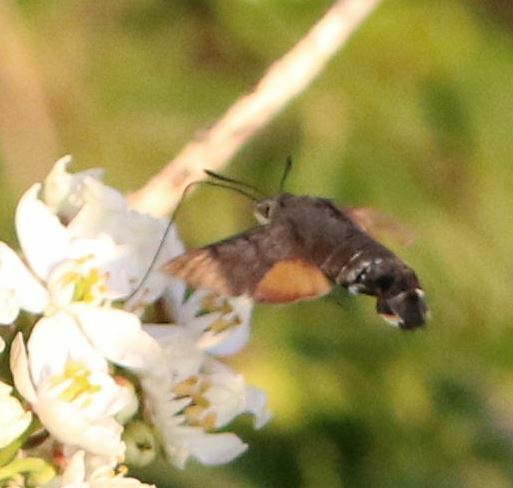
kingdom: Animalia
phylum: Arthropoda
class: Insecta
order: Lepidoptera
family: Sphingidae
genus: Macroglossum
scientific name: Macroglossum stellatarum
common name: Humming-bird hawk-moth
